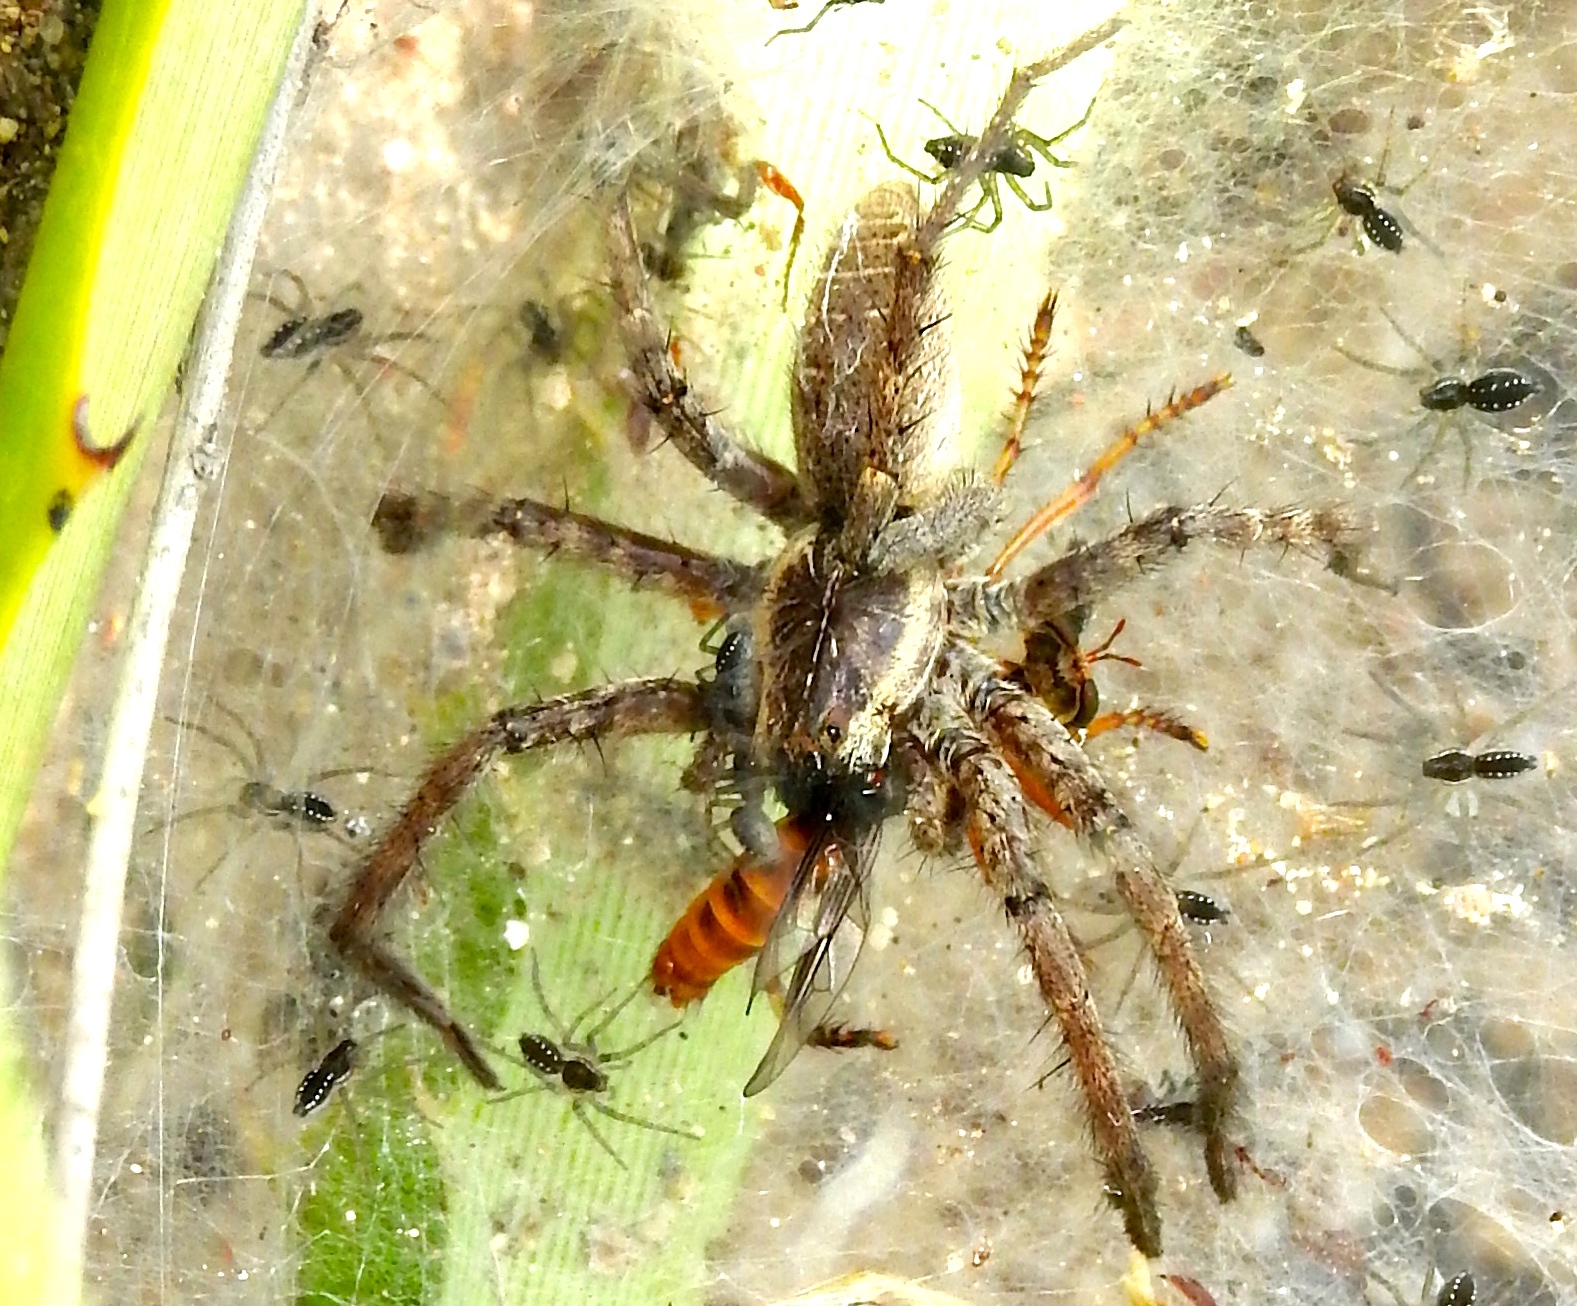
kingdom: Animalia
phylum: Arthropoda
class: Arachnida
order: Araneae
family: Lycosidae
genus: Sosippus
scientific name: Sosippus
